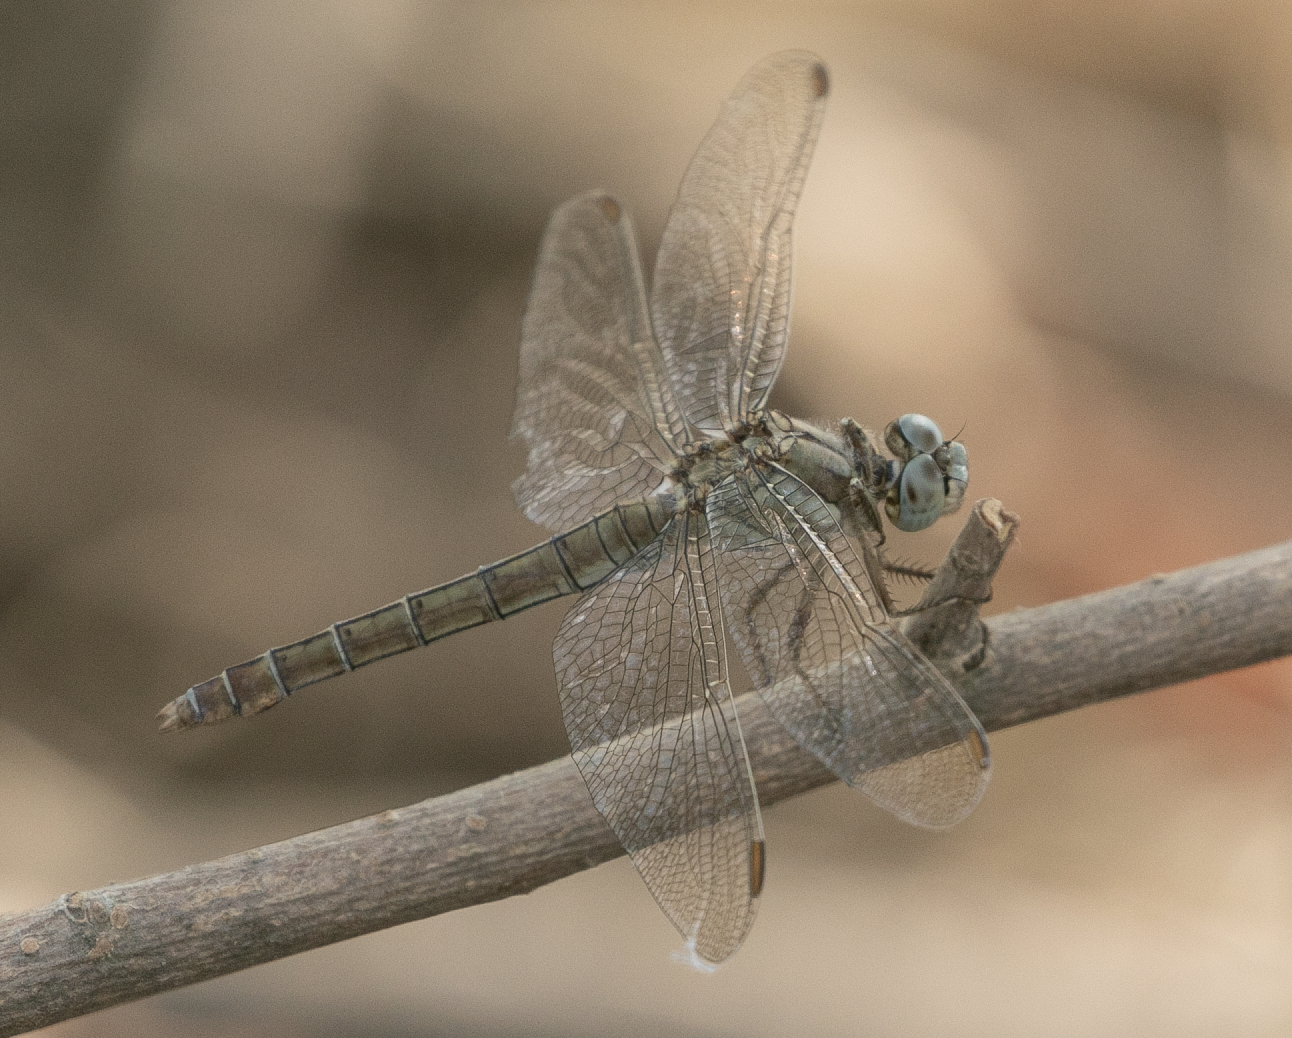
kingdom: Animalia
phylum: Arthropoda
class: Insecta
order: Odonata
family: Libellulidae
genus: Orthetrum
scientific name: Orthetrum brunneum
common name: Southern skimmer
